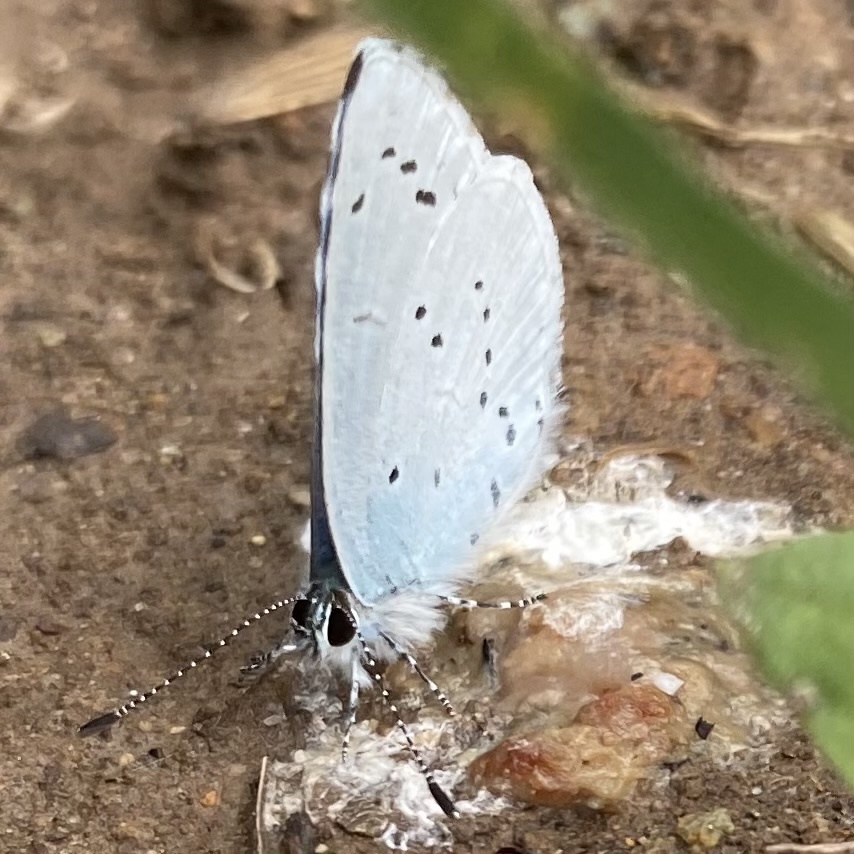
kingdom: Animalia
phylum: Arthropoda
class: Insecta
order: Lepidoptera
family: Lycaenidae
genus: Celastrina
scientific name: Celastrina argiolus
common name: Holly blue
